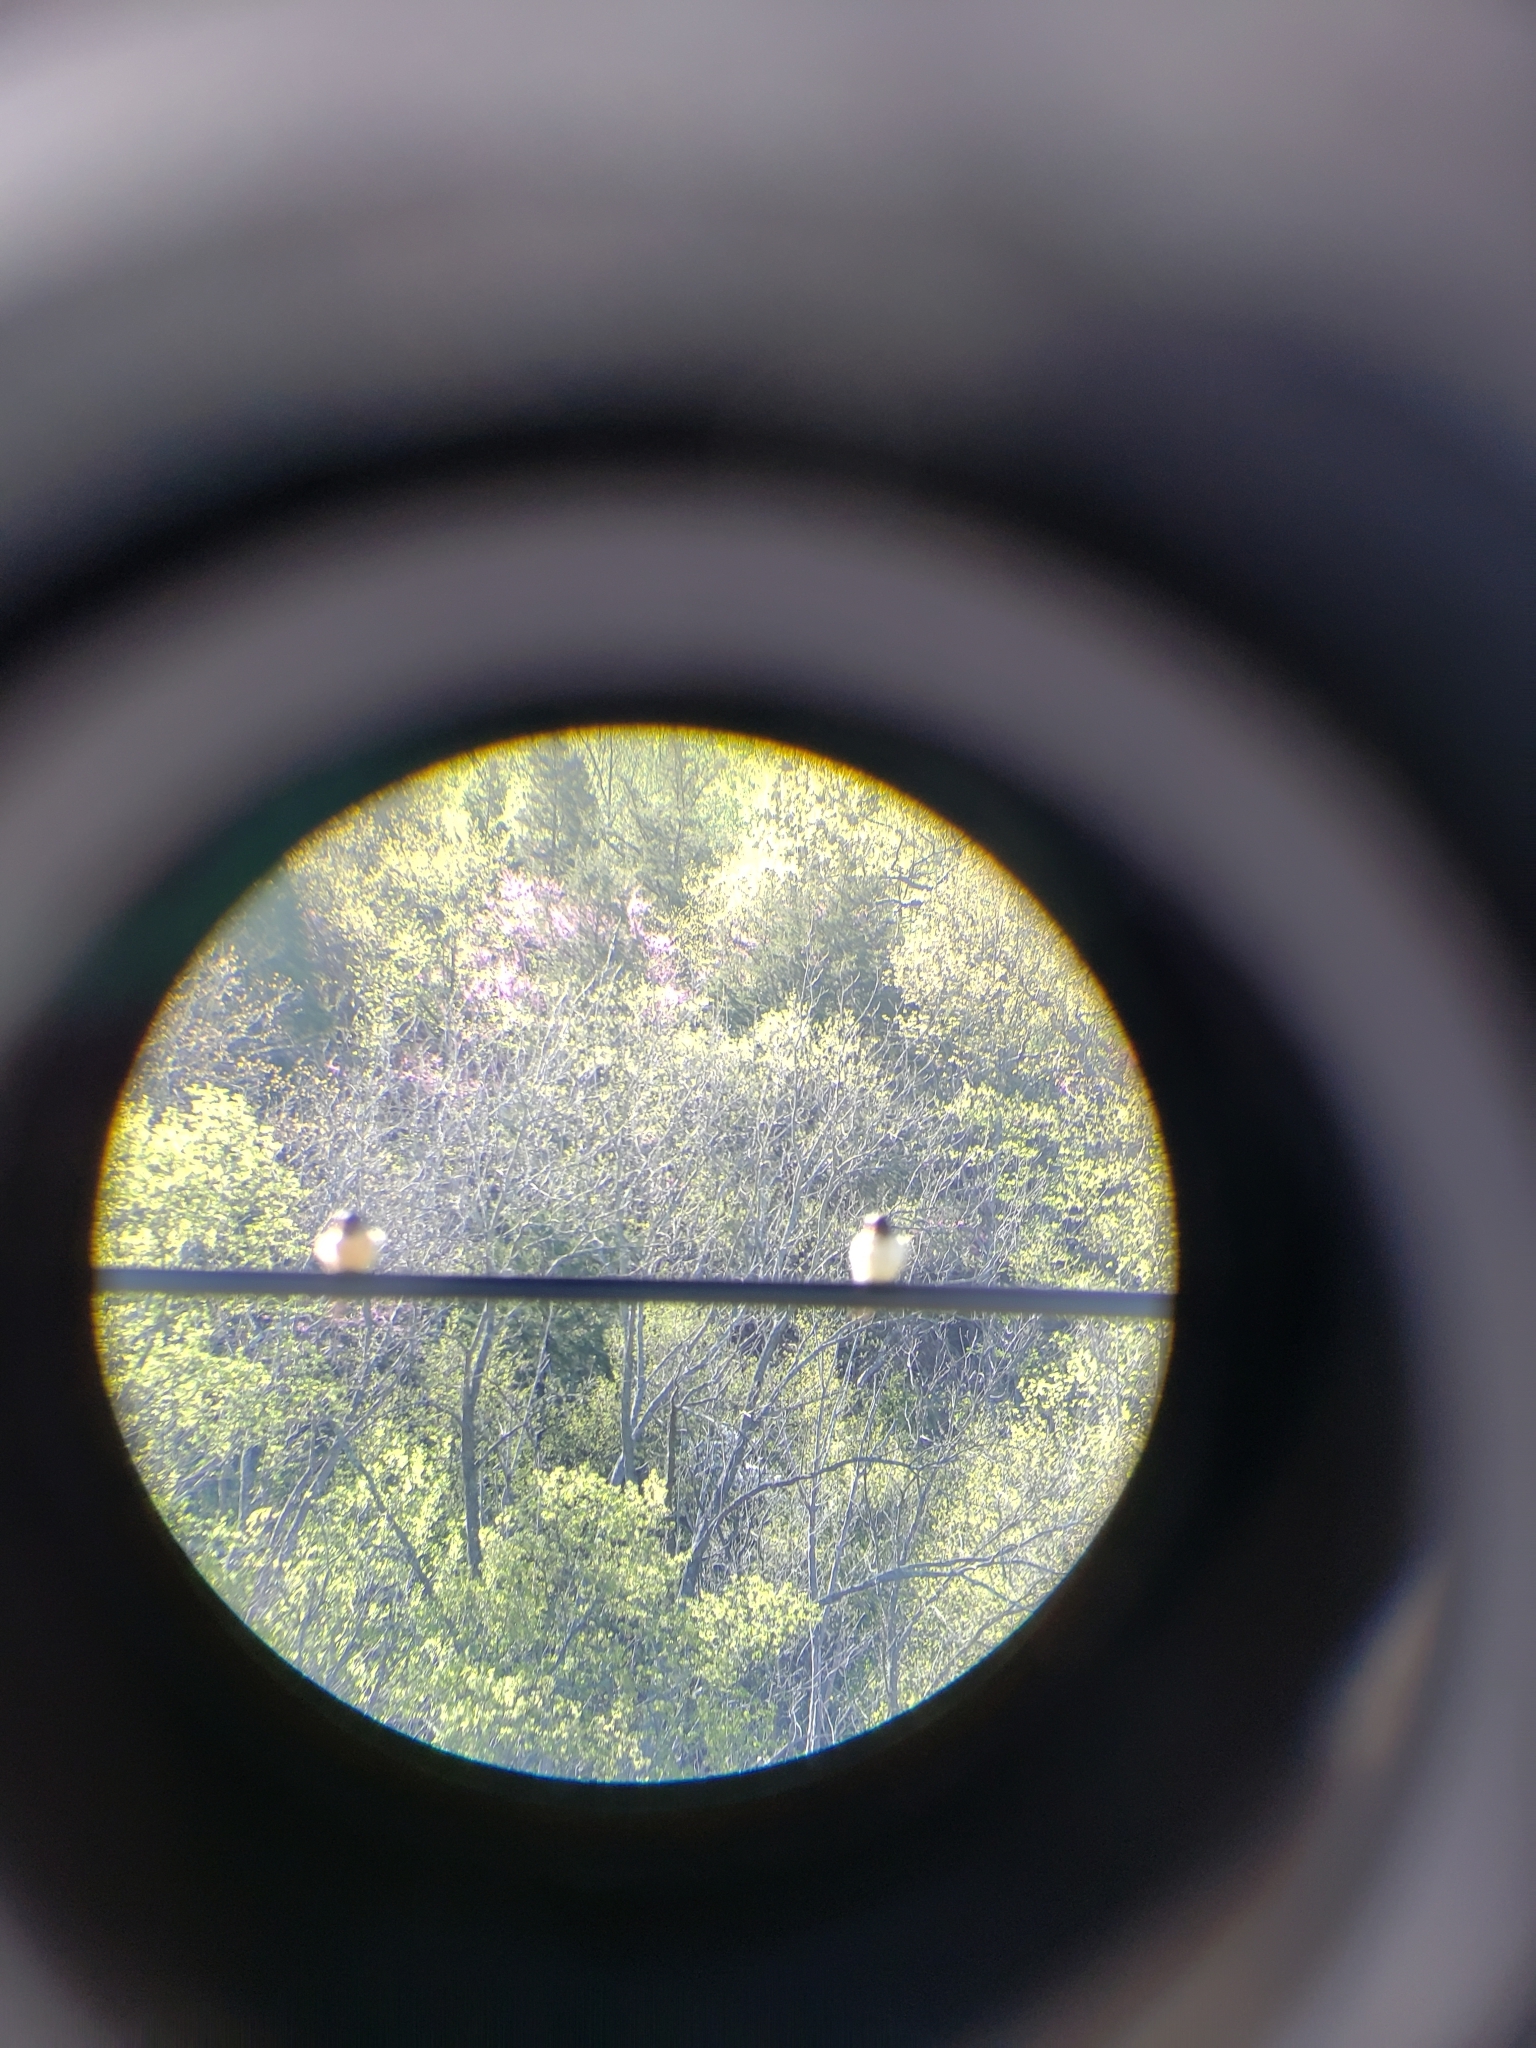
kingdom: Animalia
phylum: Chordata
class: Aves
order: Passeriformes
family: Hirundinidae
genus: Hirundo
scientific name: Hirundo rustica
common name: Barn swallow
